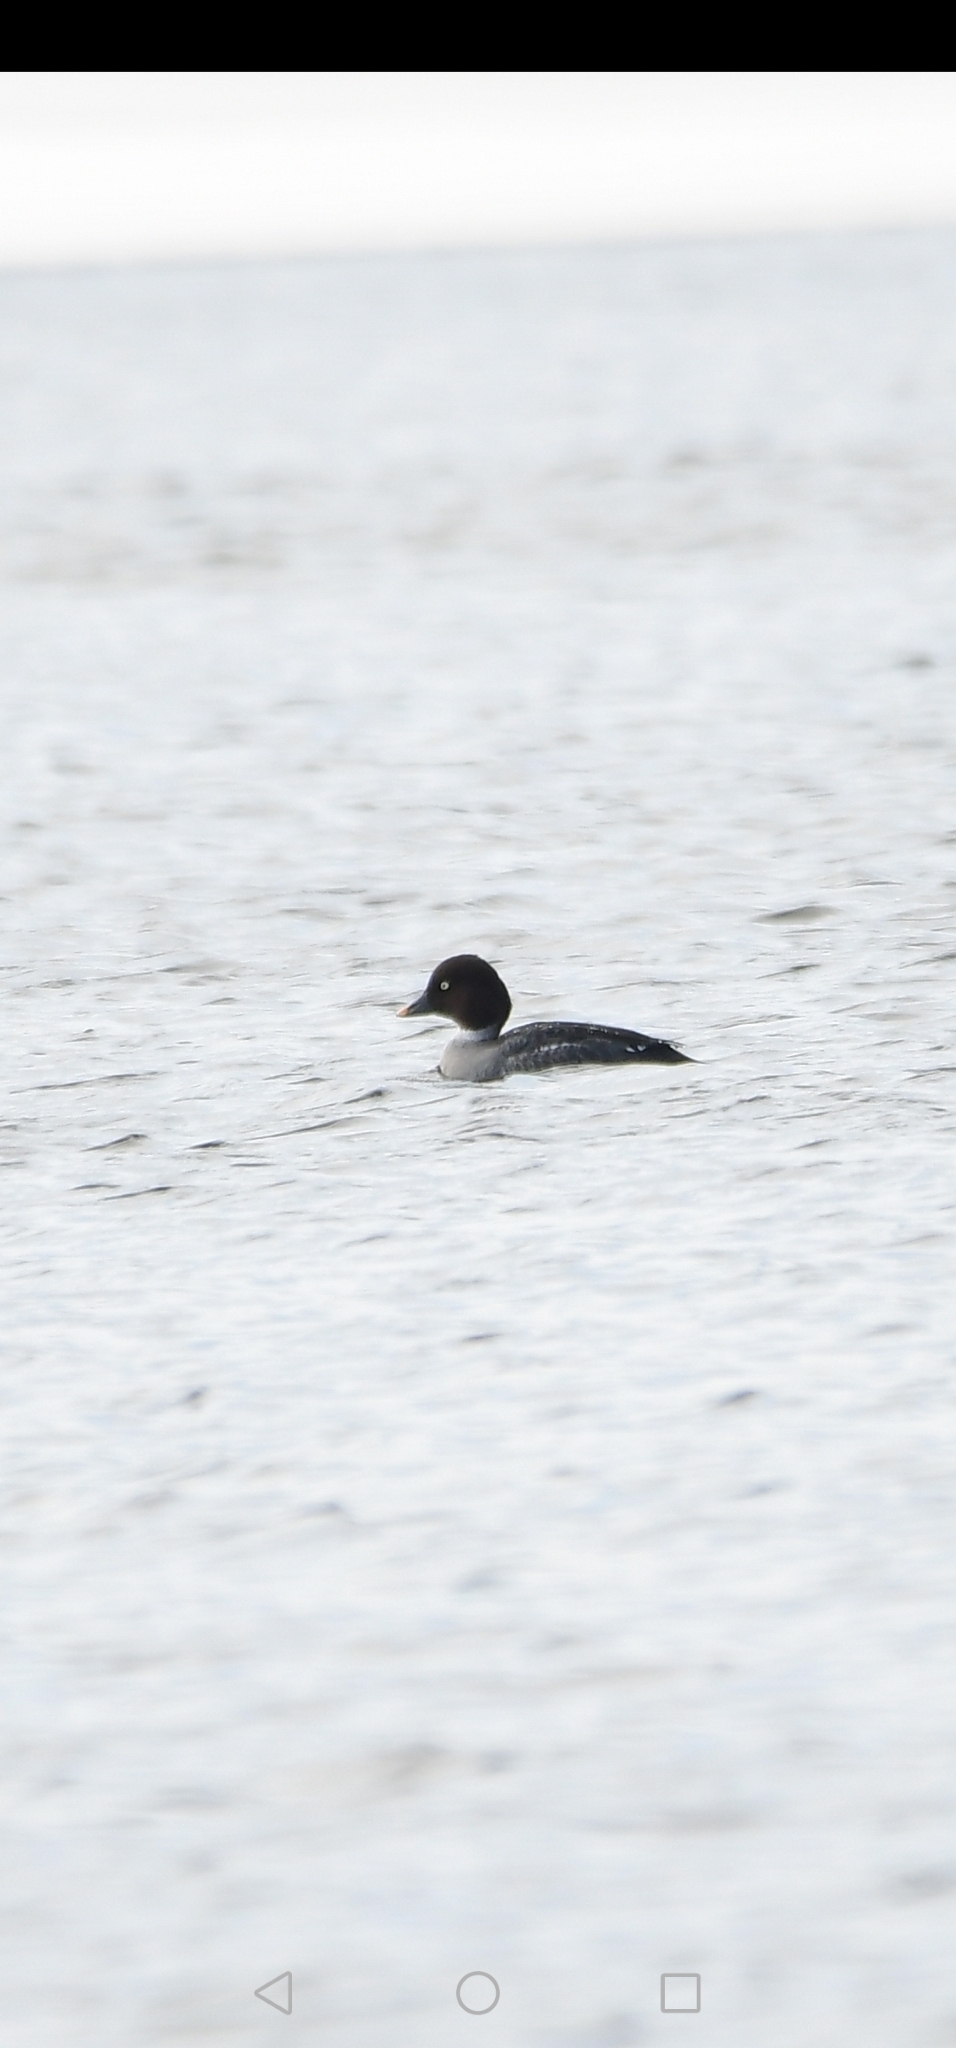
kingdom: Animalia
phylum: Chordata
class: Aves
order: Anseriformes
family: Anatidae
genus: Bucephala
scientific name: Bucephala clangula
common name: Common goldeneye
